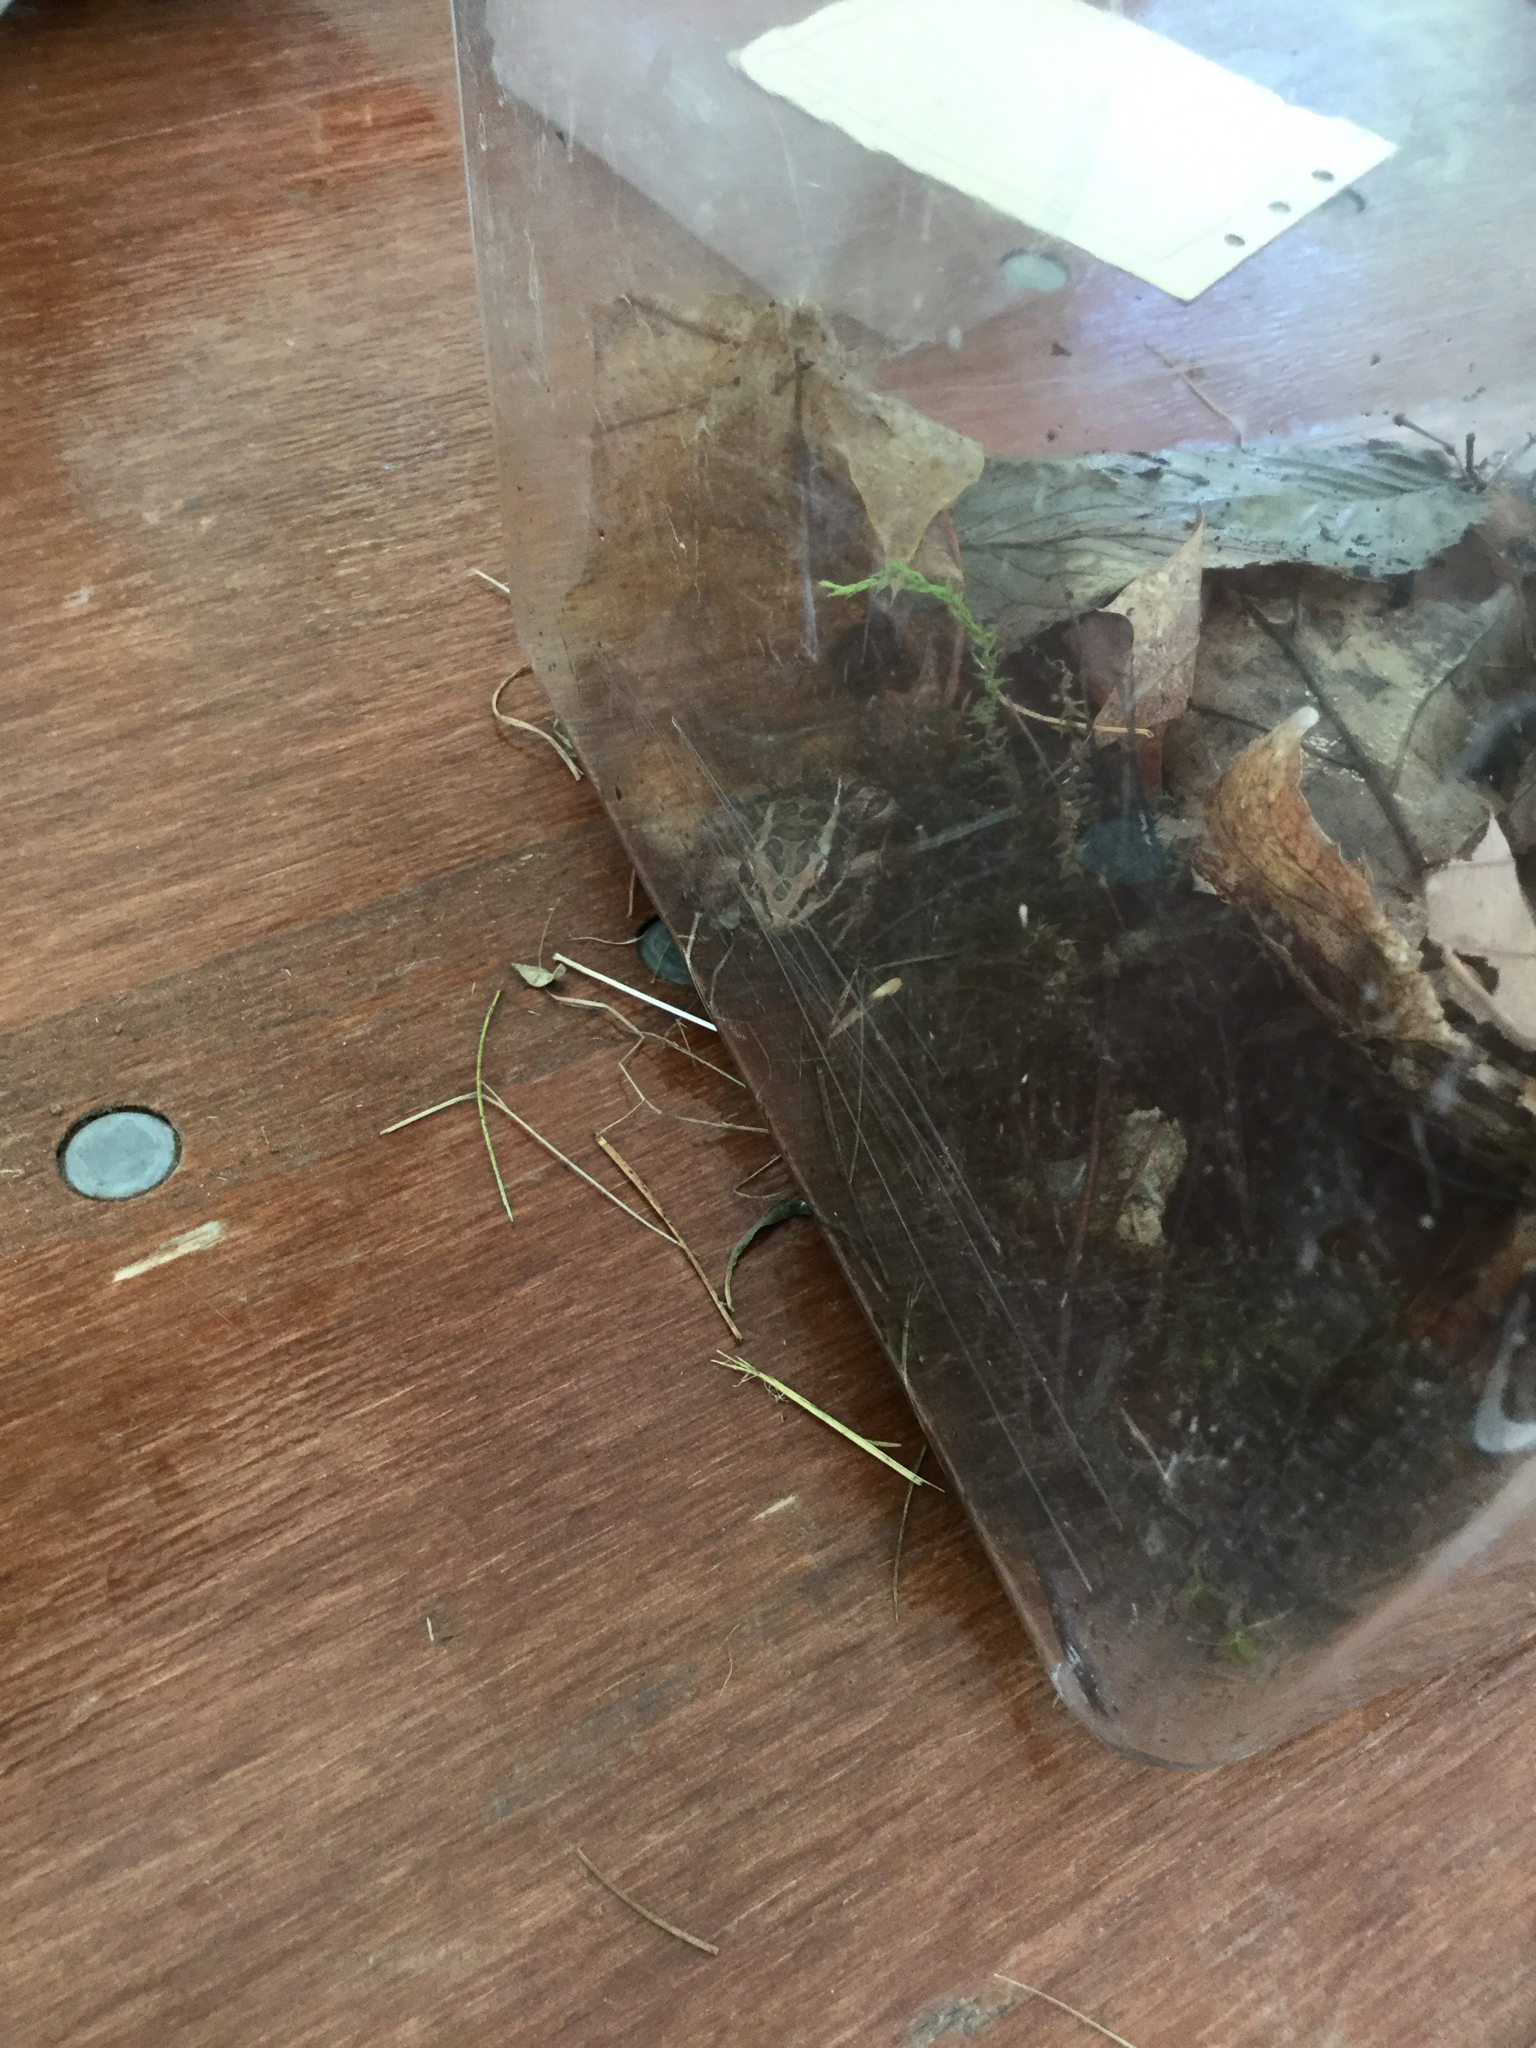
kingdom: Animalia
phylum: Chordata
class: Amphibia
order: Anura
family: Ranidae
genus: Lithobates
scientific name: Lithobates palustris
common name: Pickerel frog
